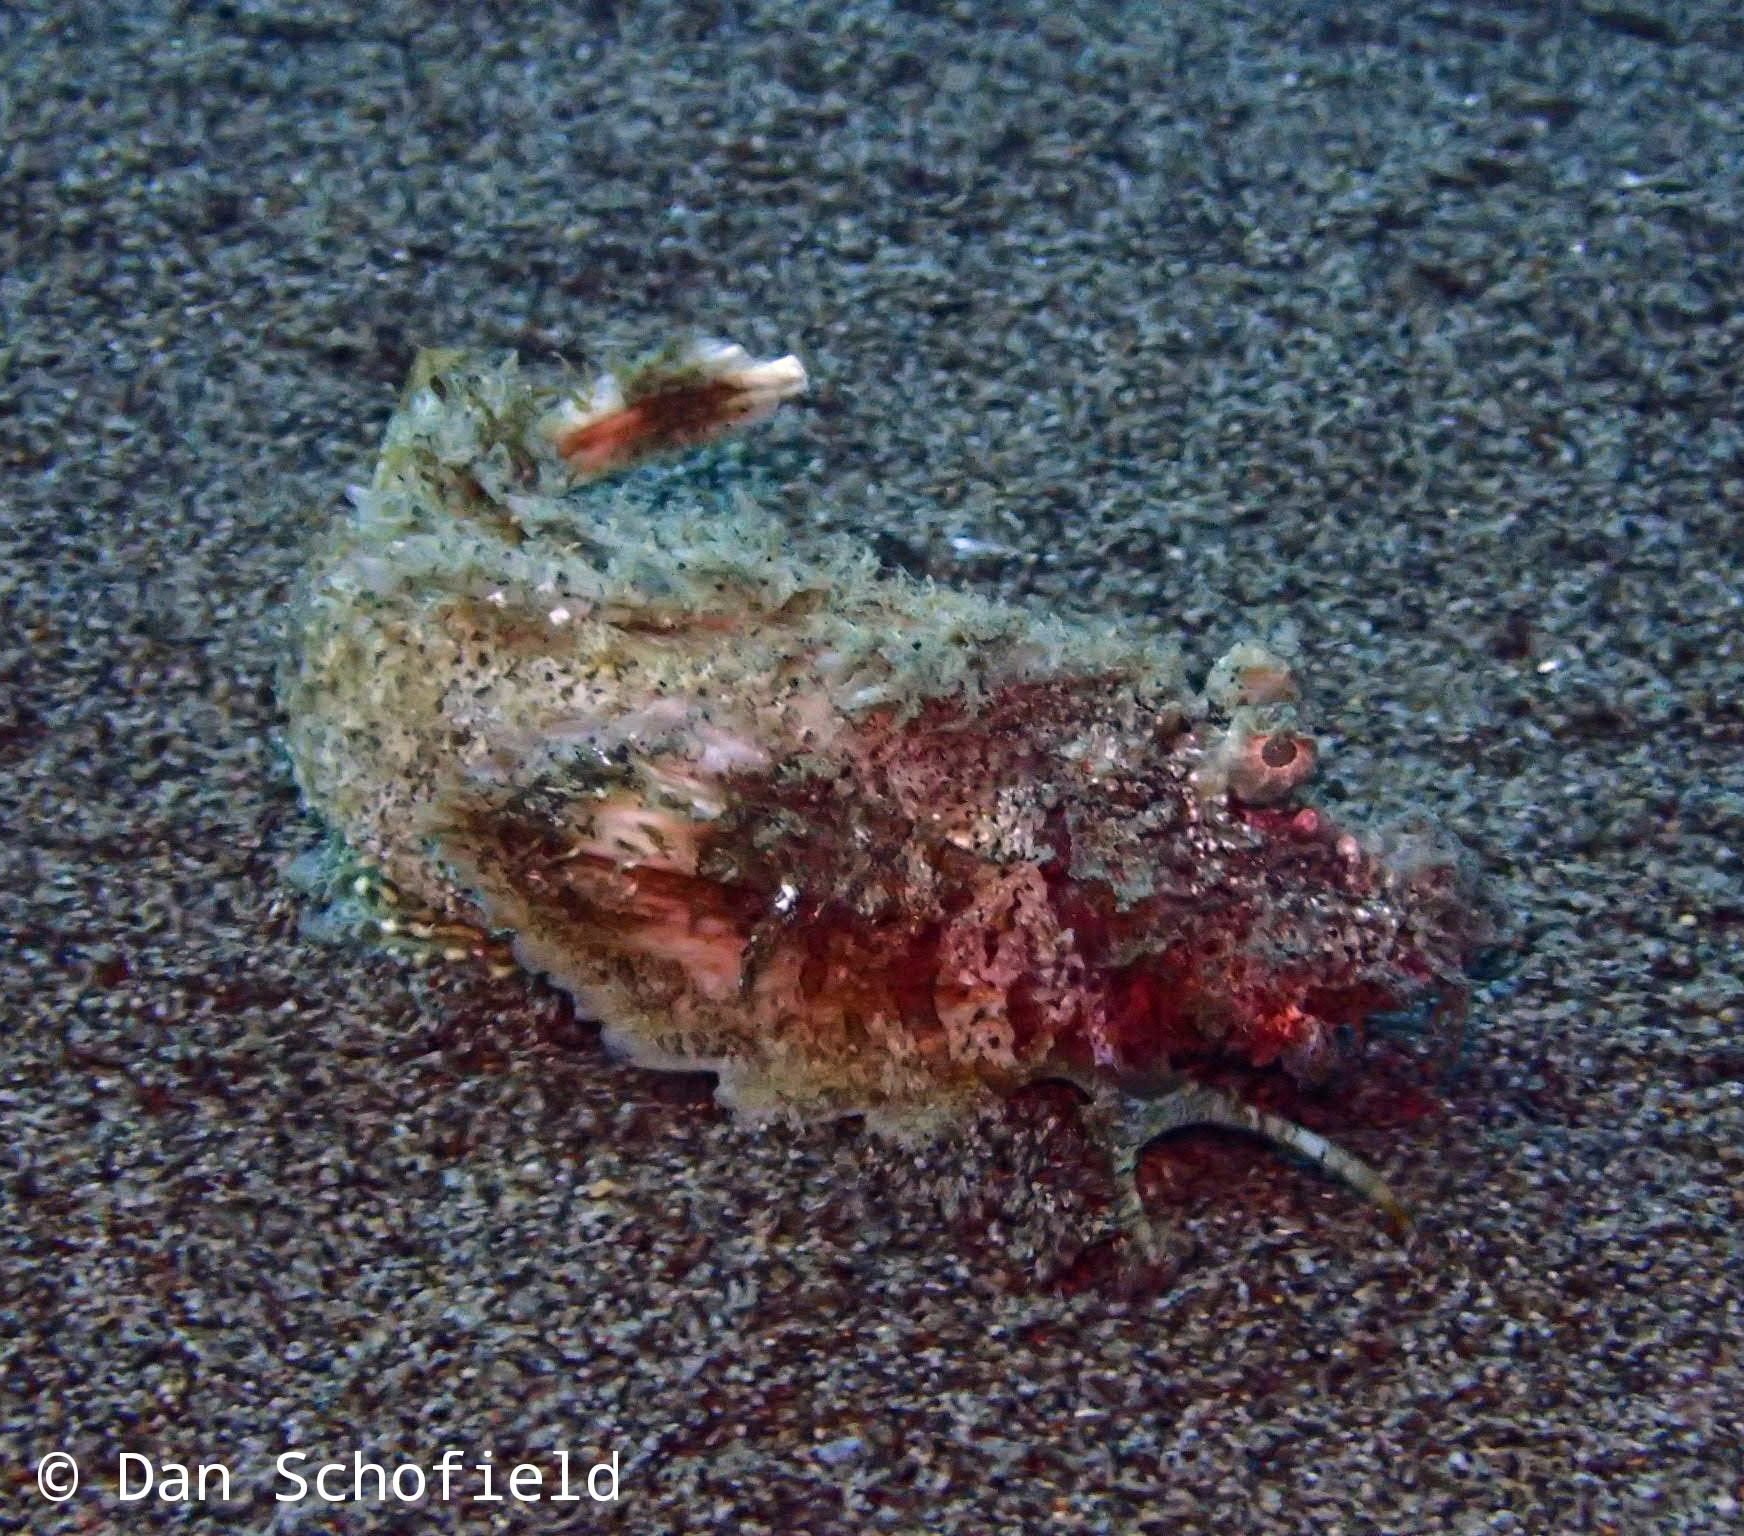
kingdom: Animalia
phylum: Chordata
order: Scorpaeniformes
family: Synanceiidae
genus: Inimicus
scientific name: Inimicus didactylus
